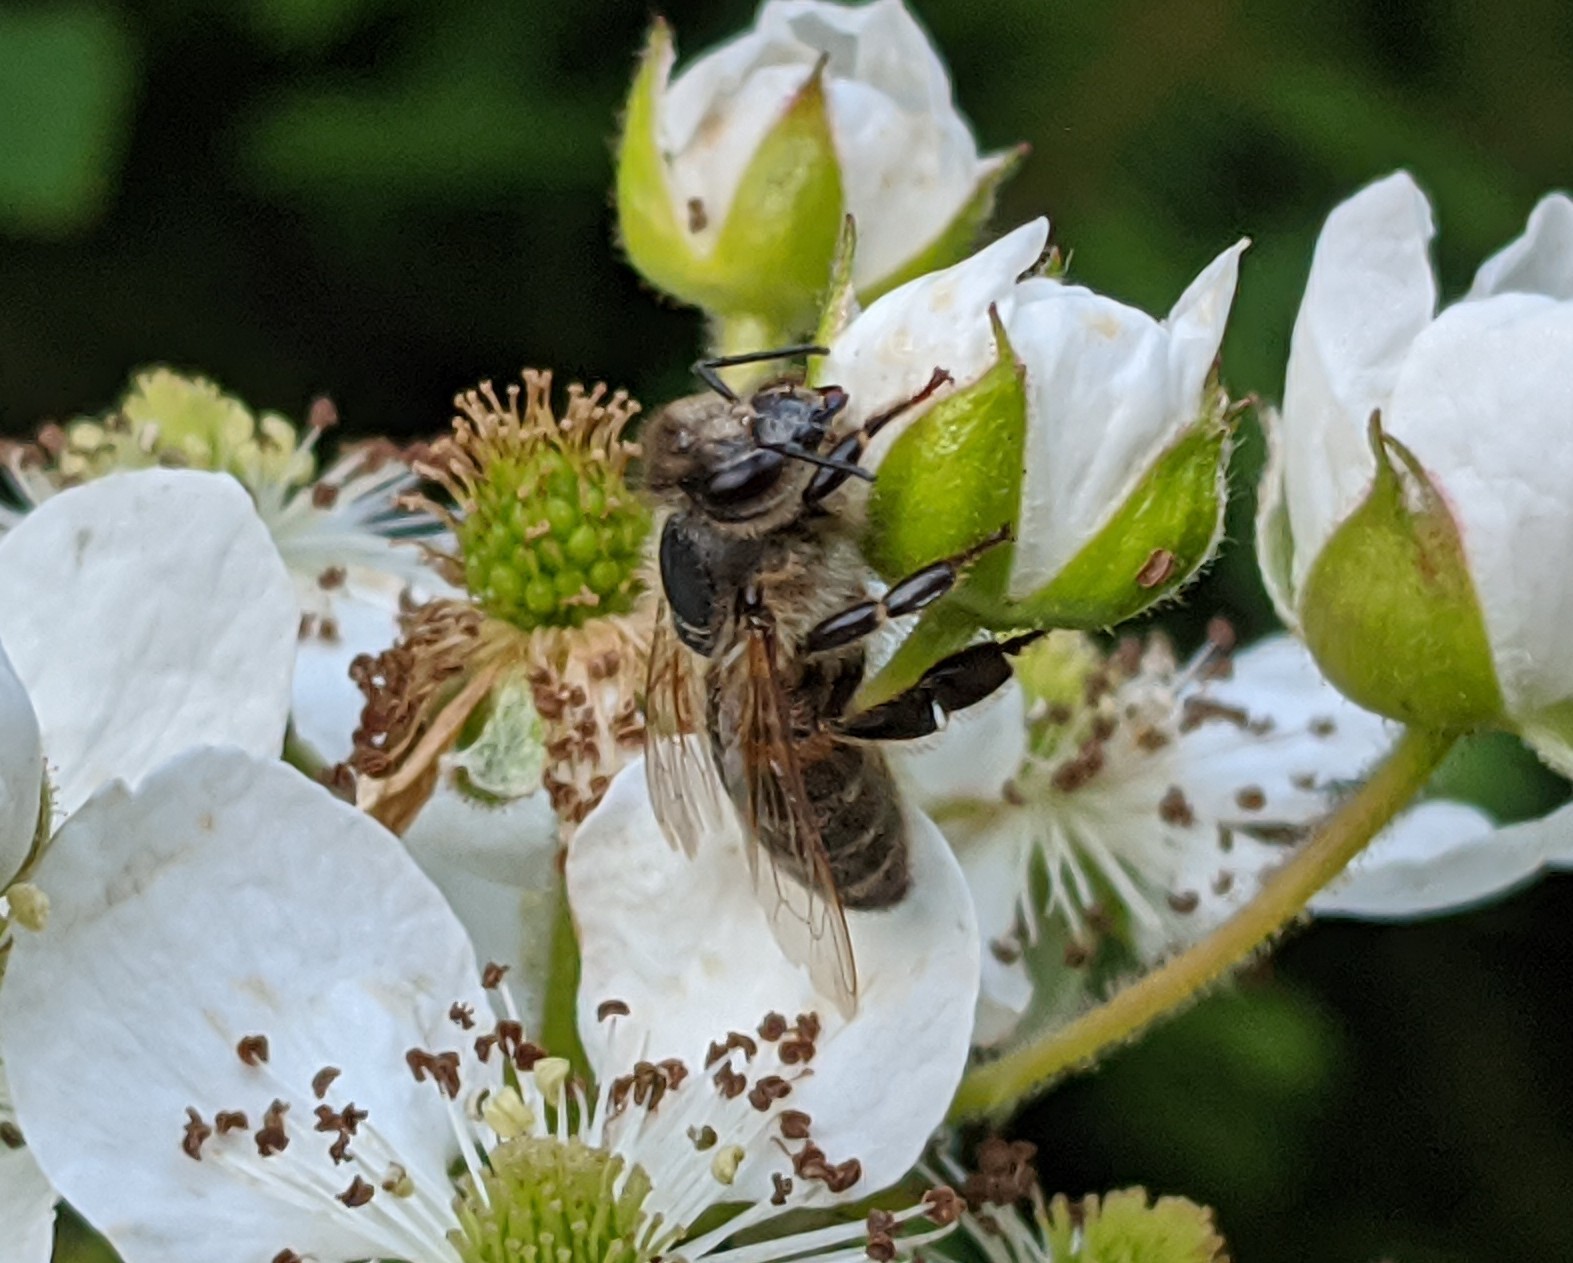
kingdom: Animalia
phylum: Arthropoda
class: Insecta
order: Hymenoptera
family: Apidae
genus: Apis
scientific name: Apis mellifera
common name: Honey bee
